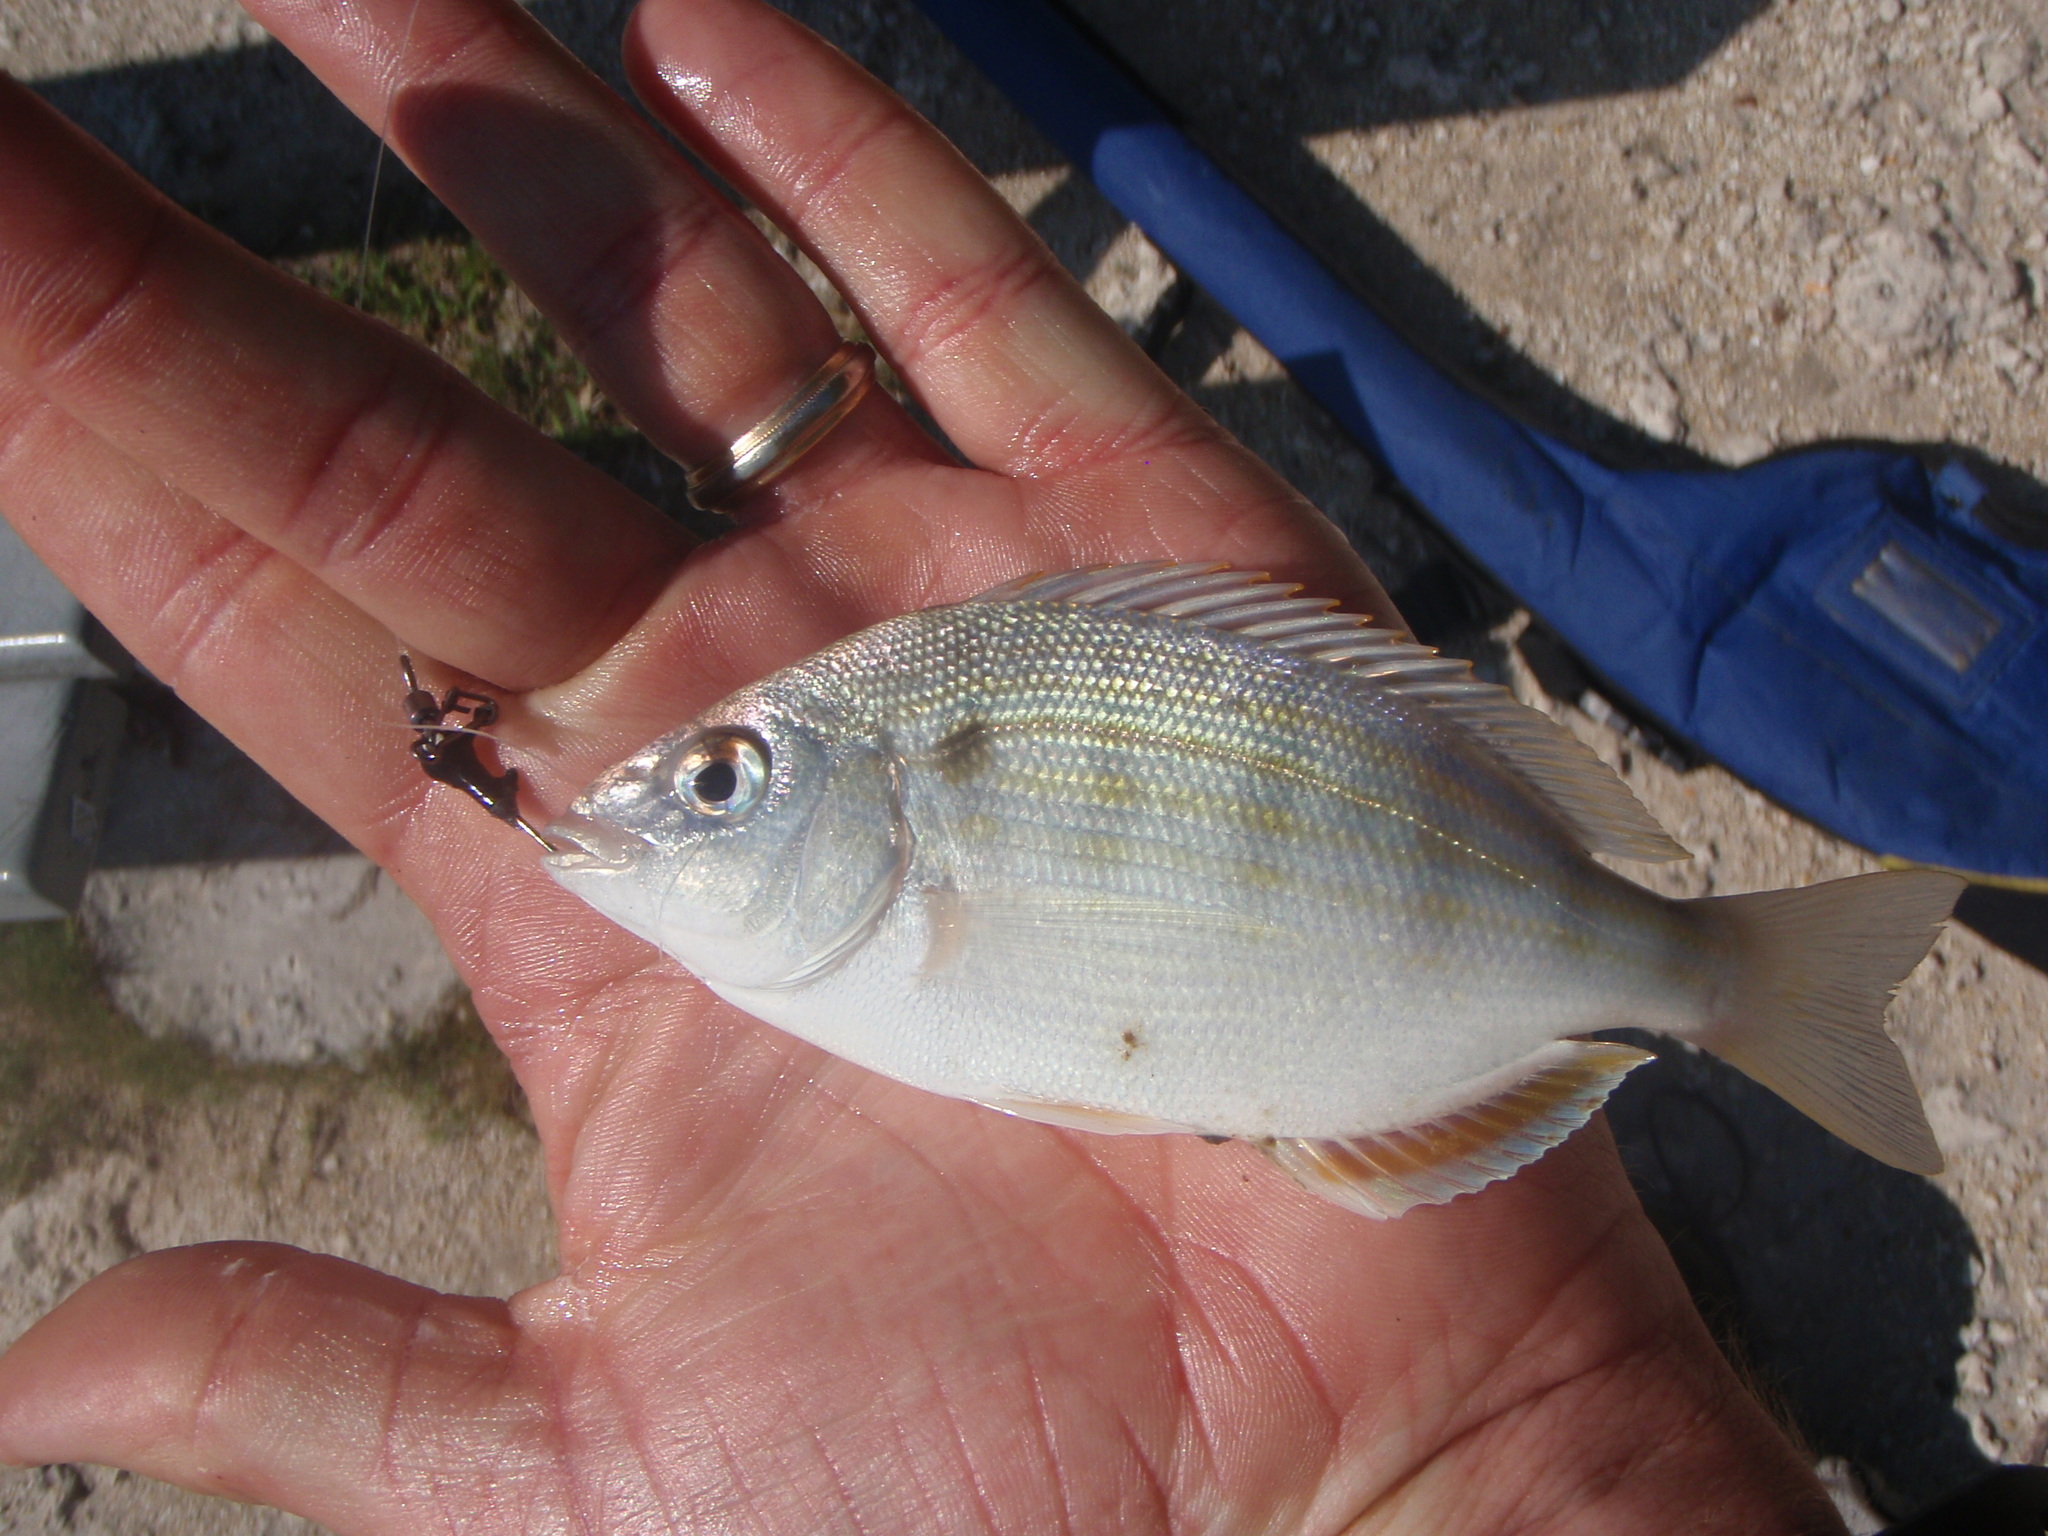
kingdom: Animalia
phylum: Chordata
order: Perciformes
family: Sparidae
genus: Lagodon
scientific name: Lagodon rhomboides
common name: Pinfish
